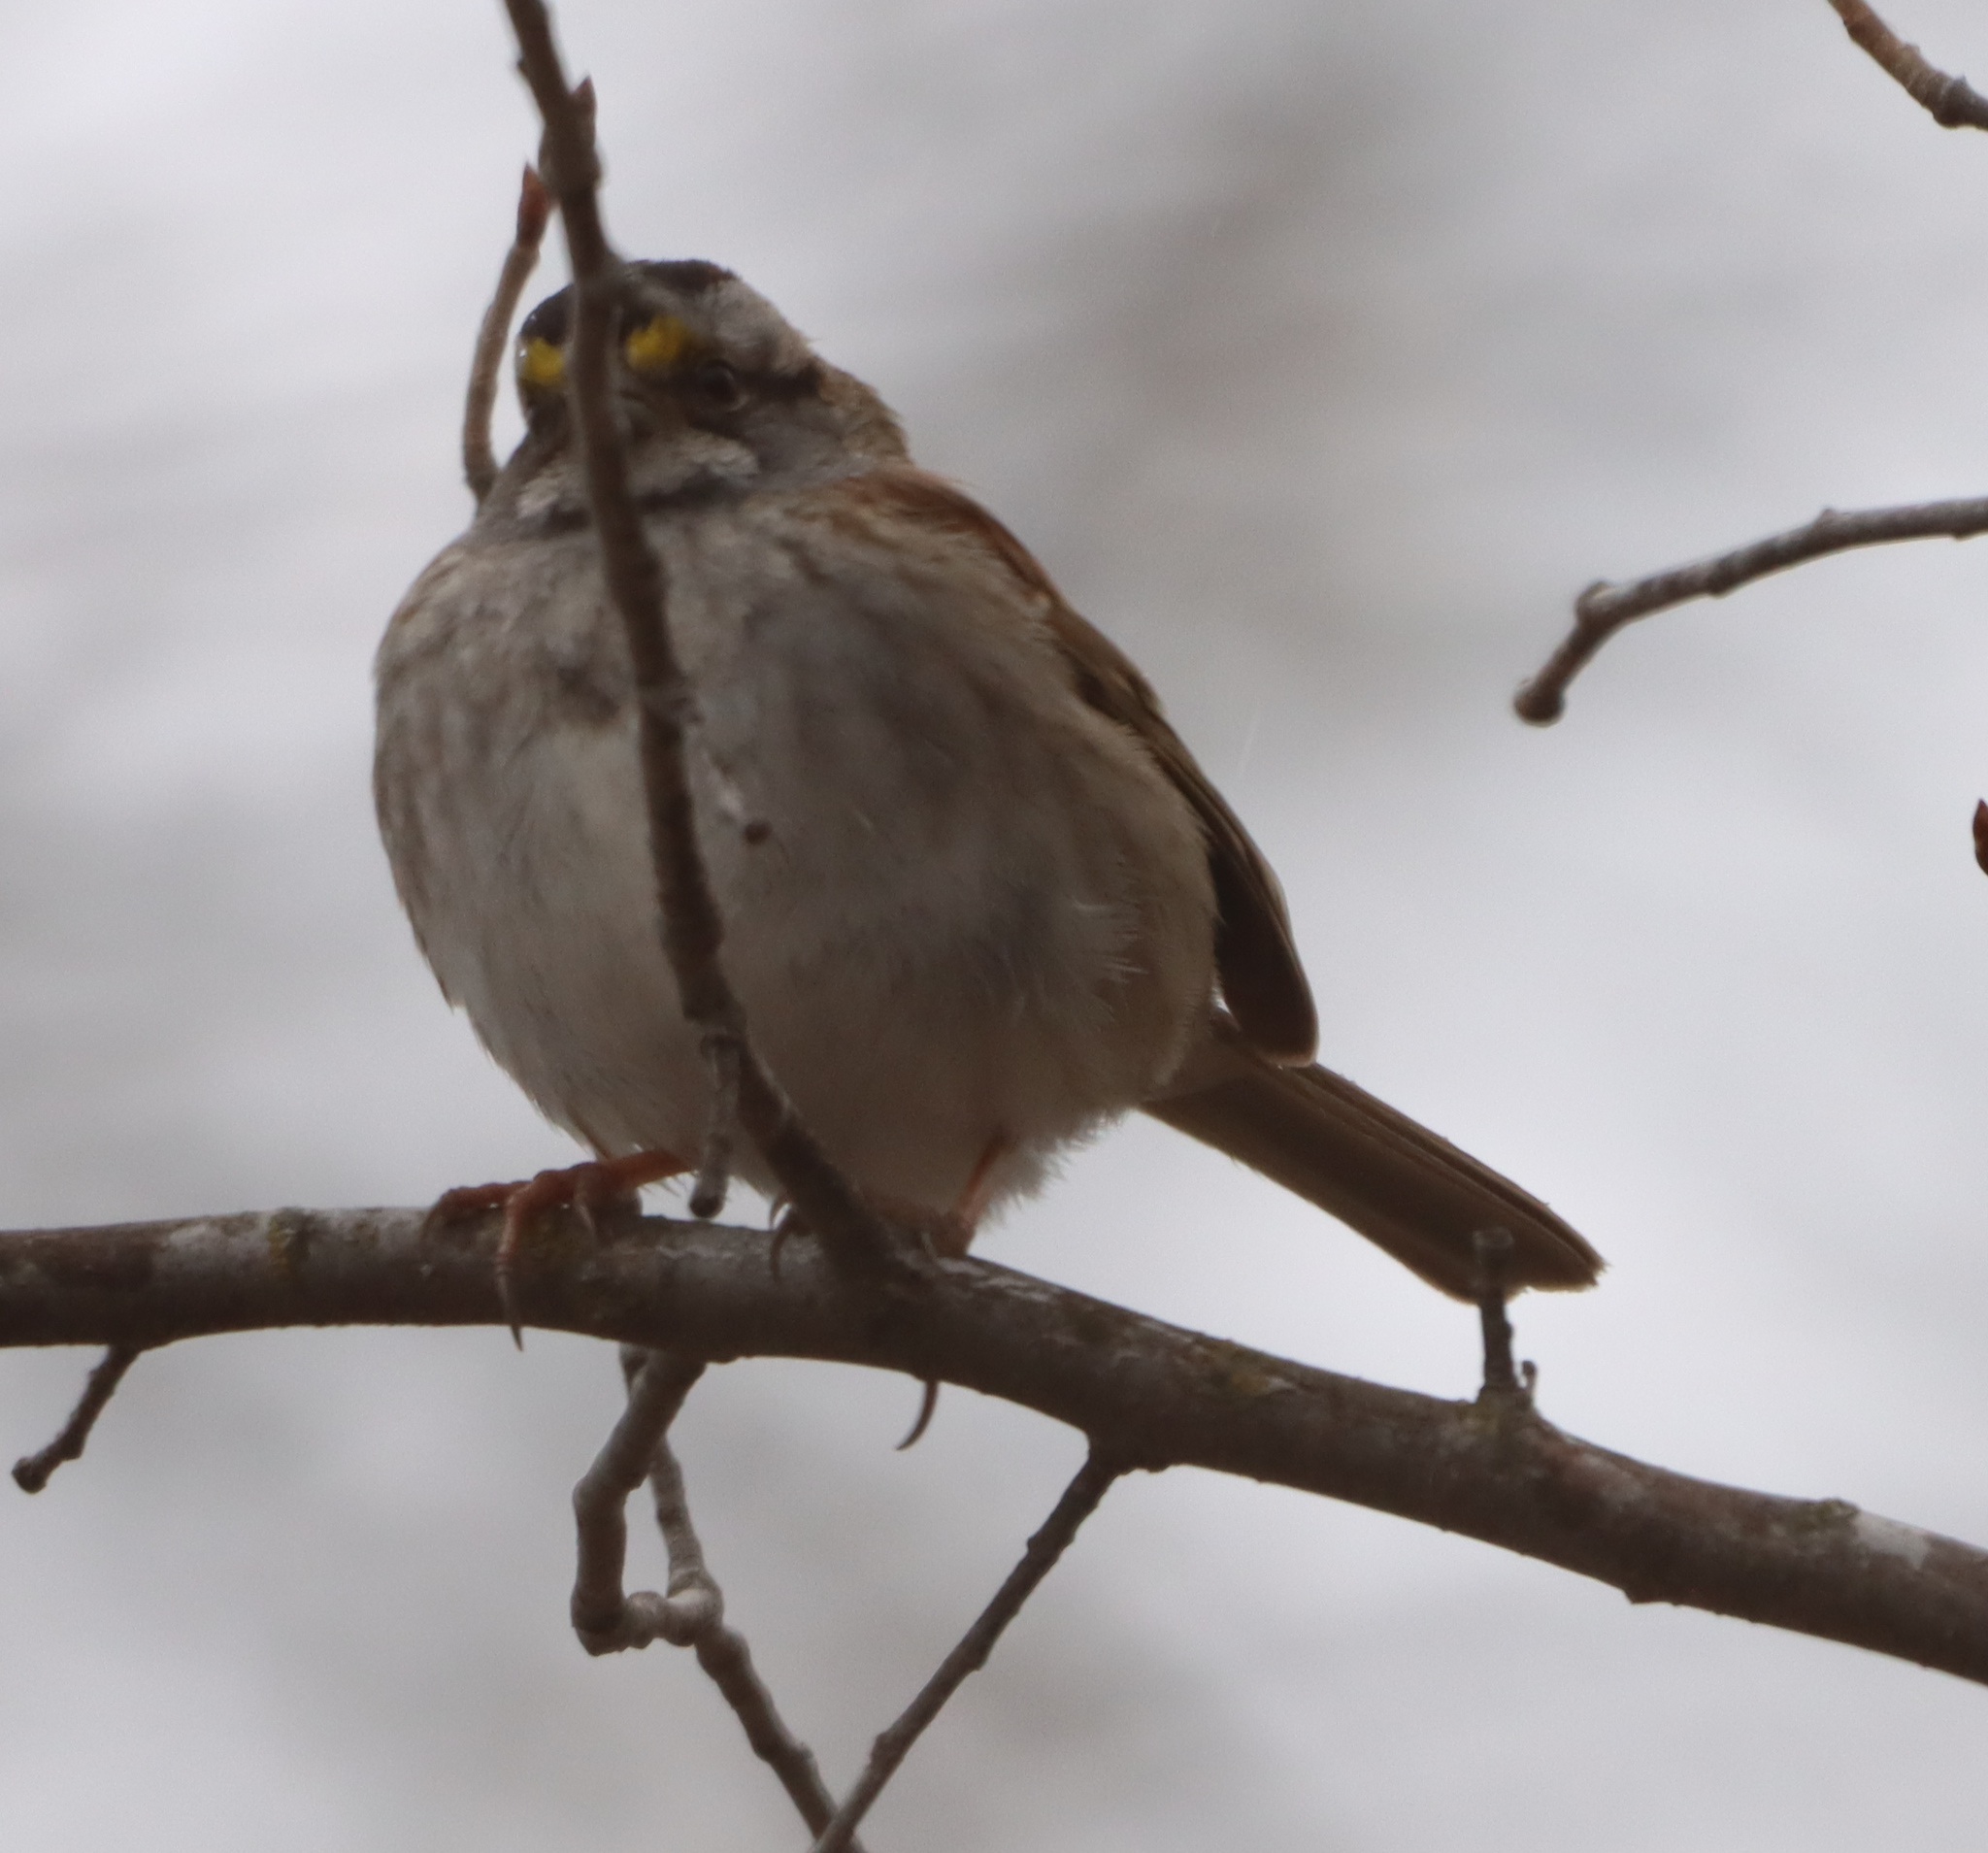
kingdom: Animalia
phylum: Chordata
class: Aves
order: Passeriformes
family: Passerellidae
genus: Zonotrichia
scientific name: Zonotrichia albicollis
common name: White-throated sparrow
